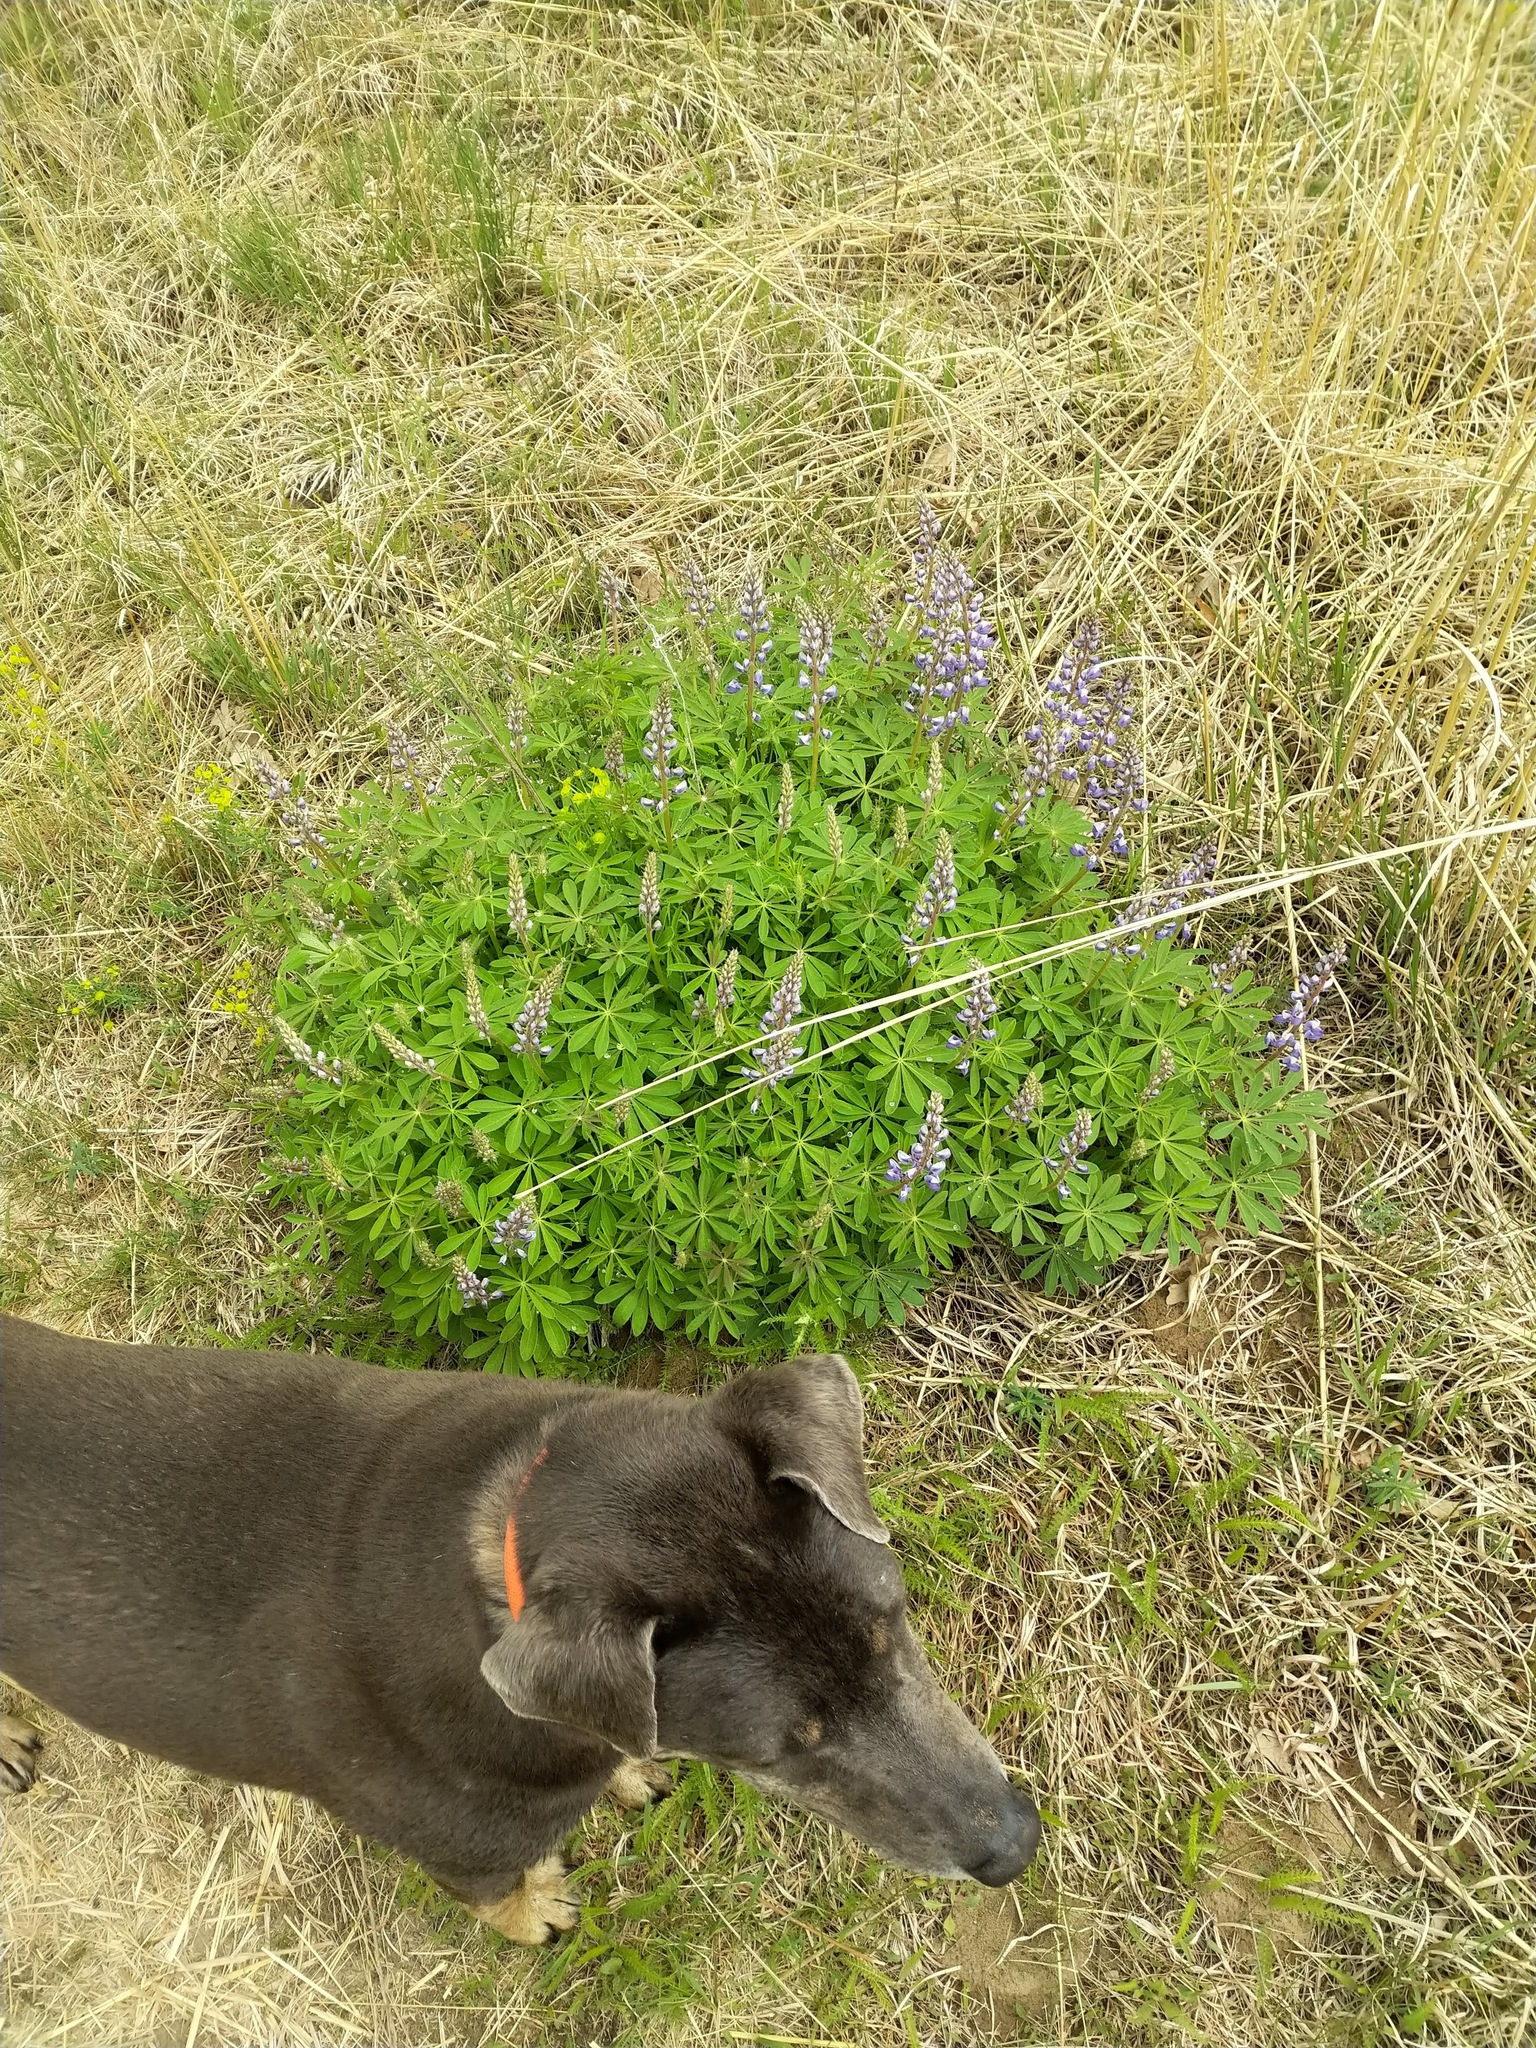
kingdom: Plantae
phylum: Tracheophyta
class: Magnoliopsida
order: Fabales
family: Fabaceae
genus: Lupinus
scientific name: Lupinus perennis
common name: Sundial lupine
